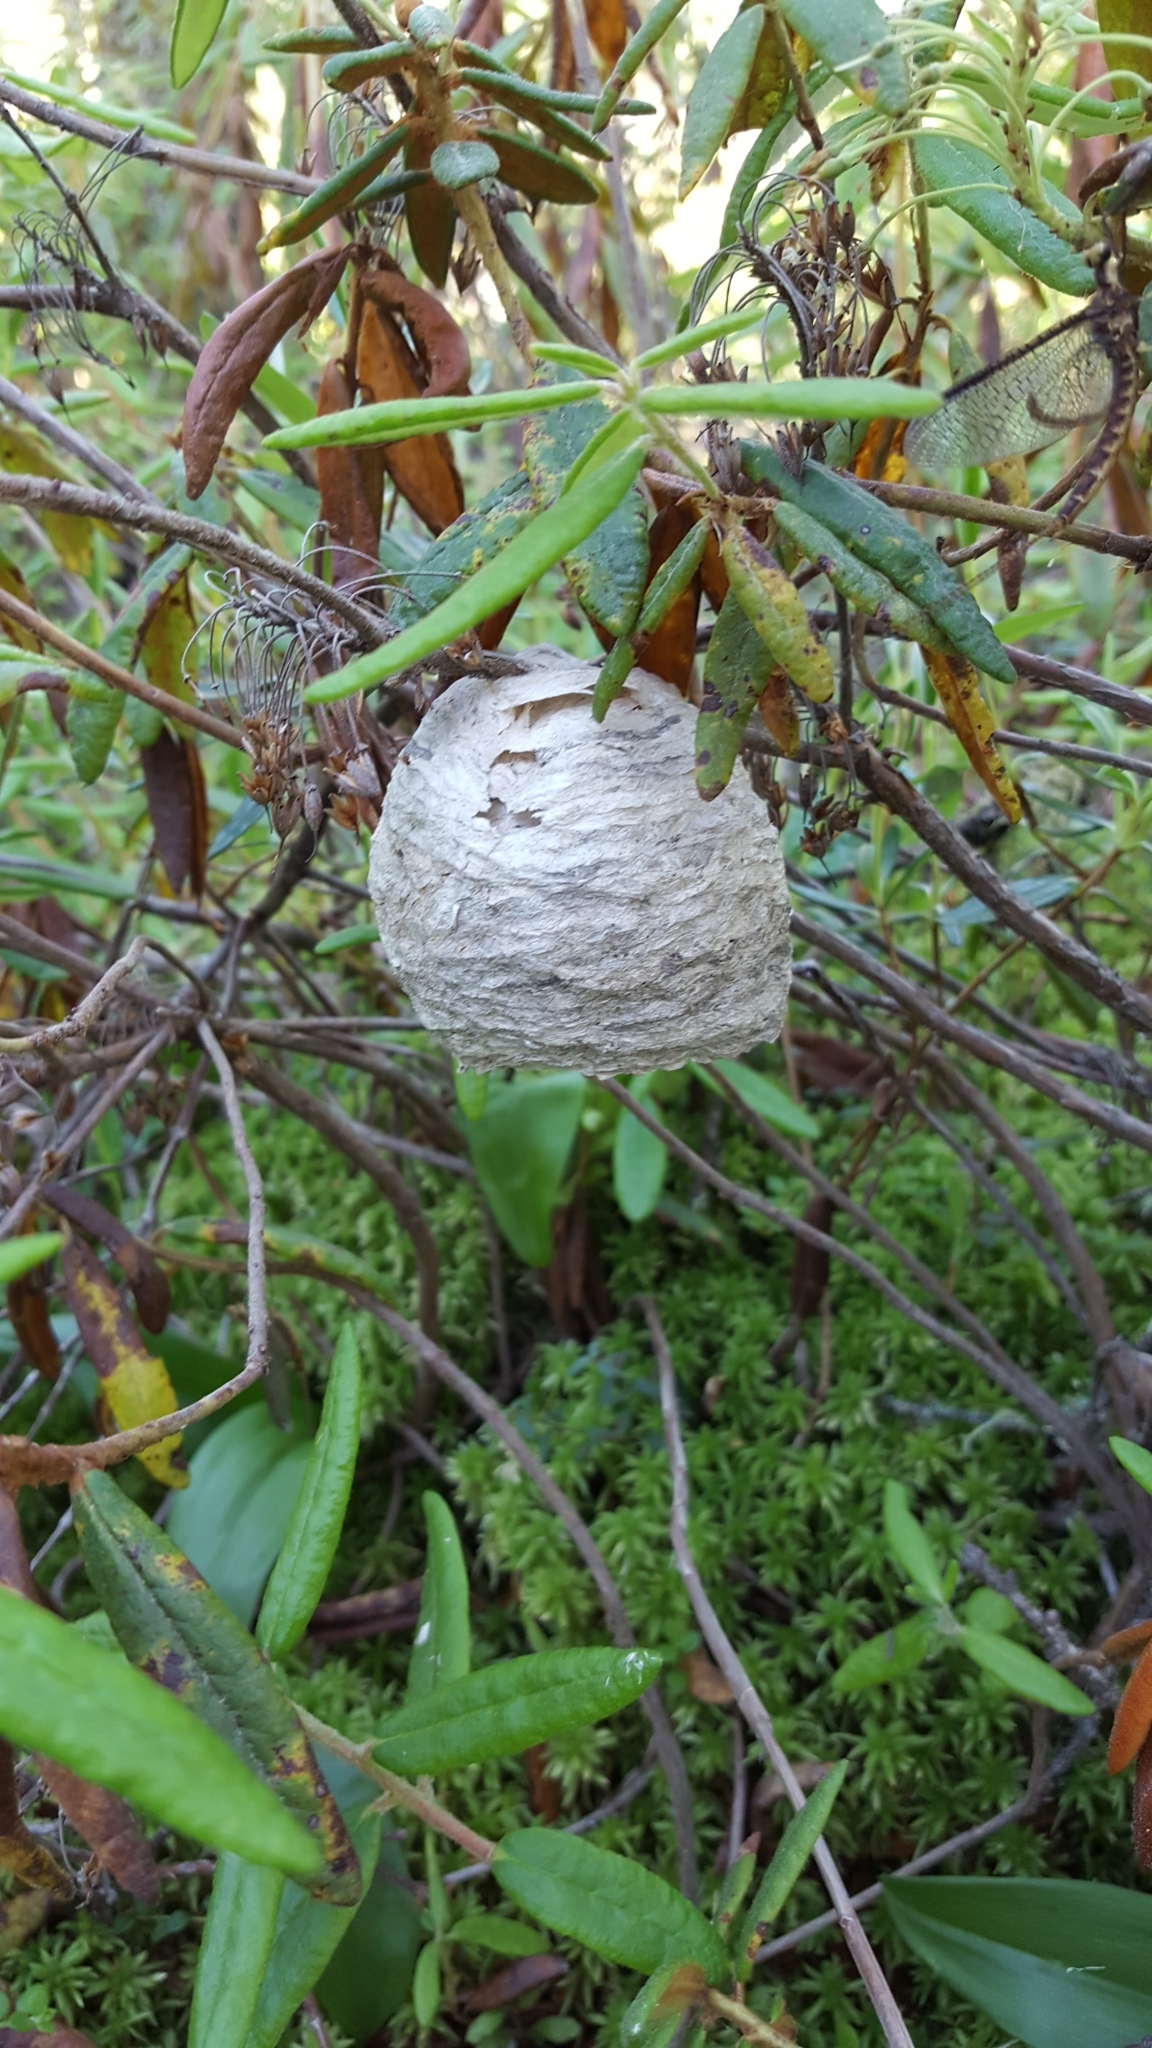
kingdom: Animalia
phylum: Arthropoda
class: Insecta
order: Hymenoptera
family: Vespidae
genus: Dolichovespula
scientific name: Dolichovespula
